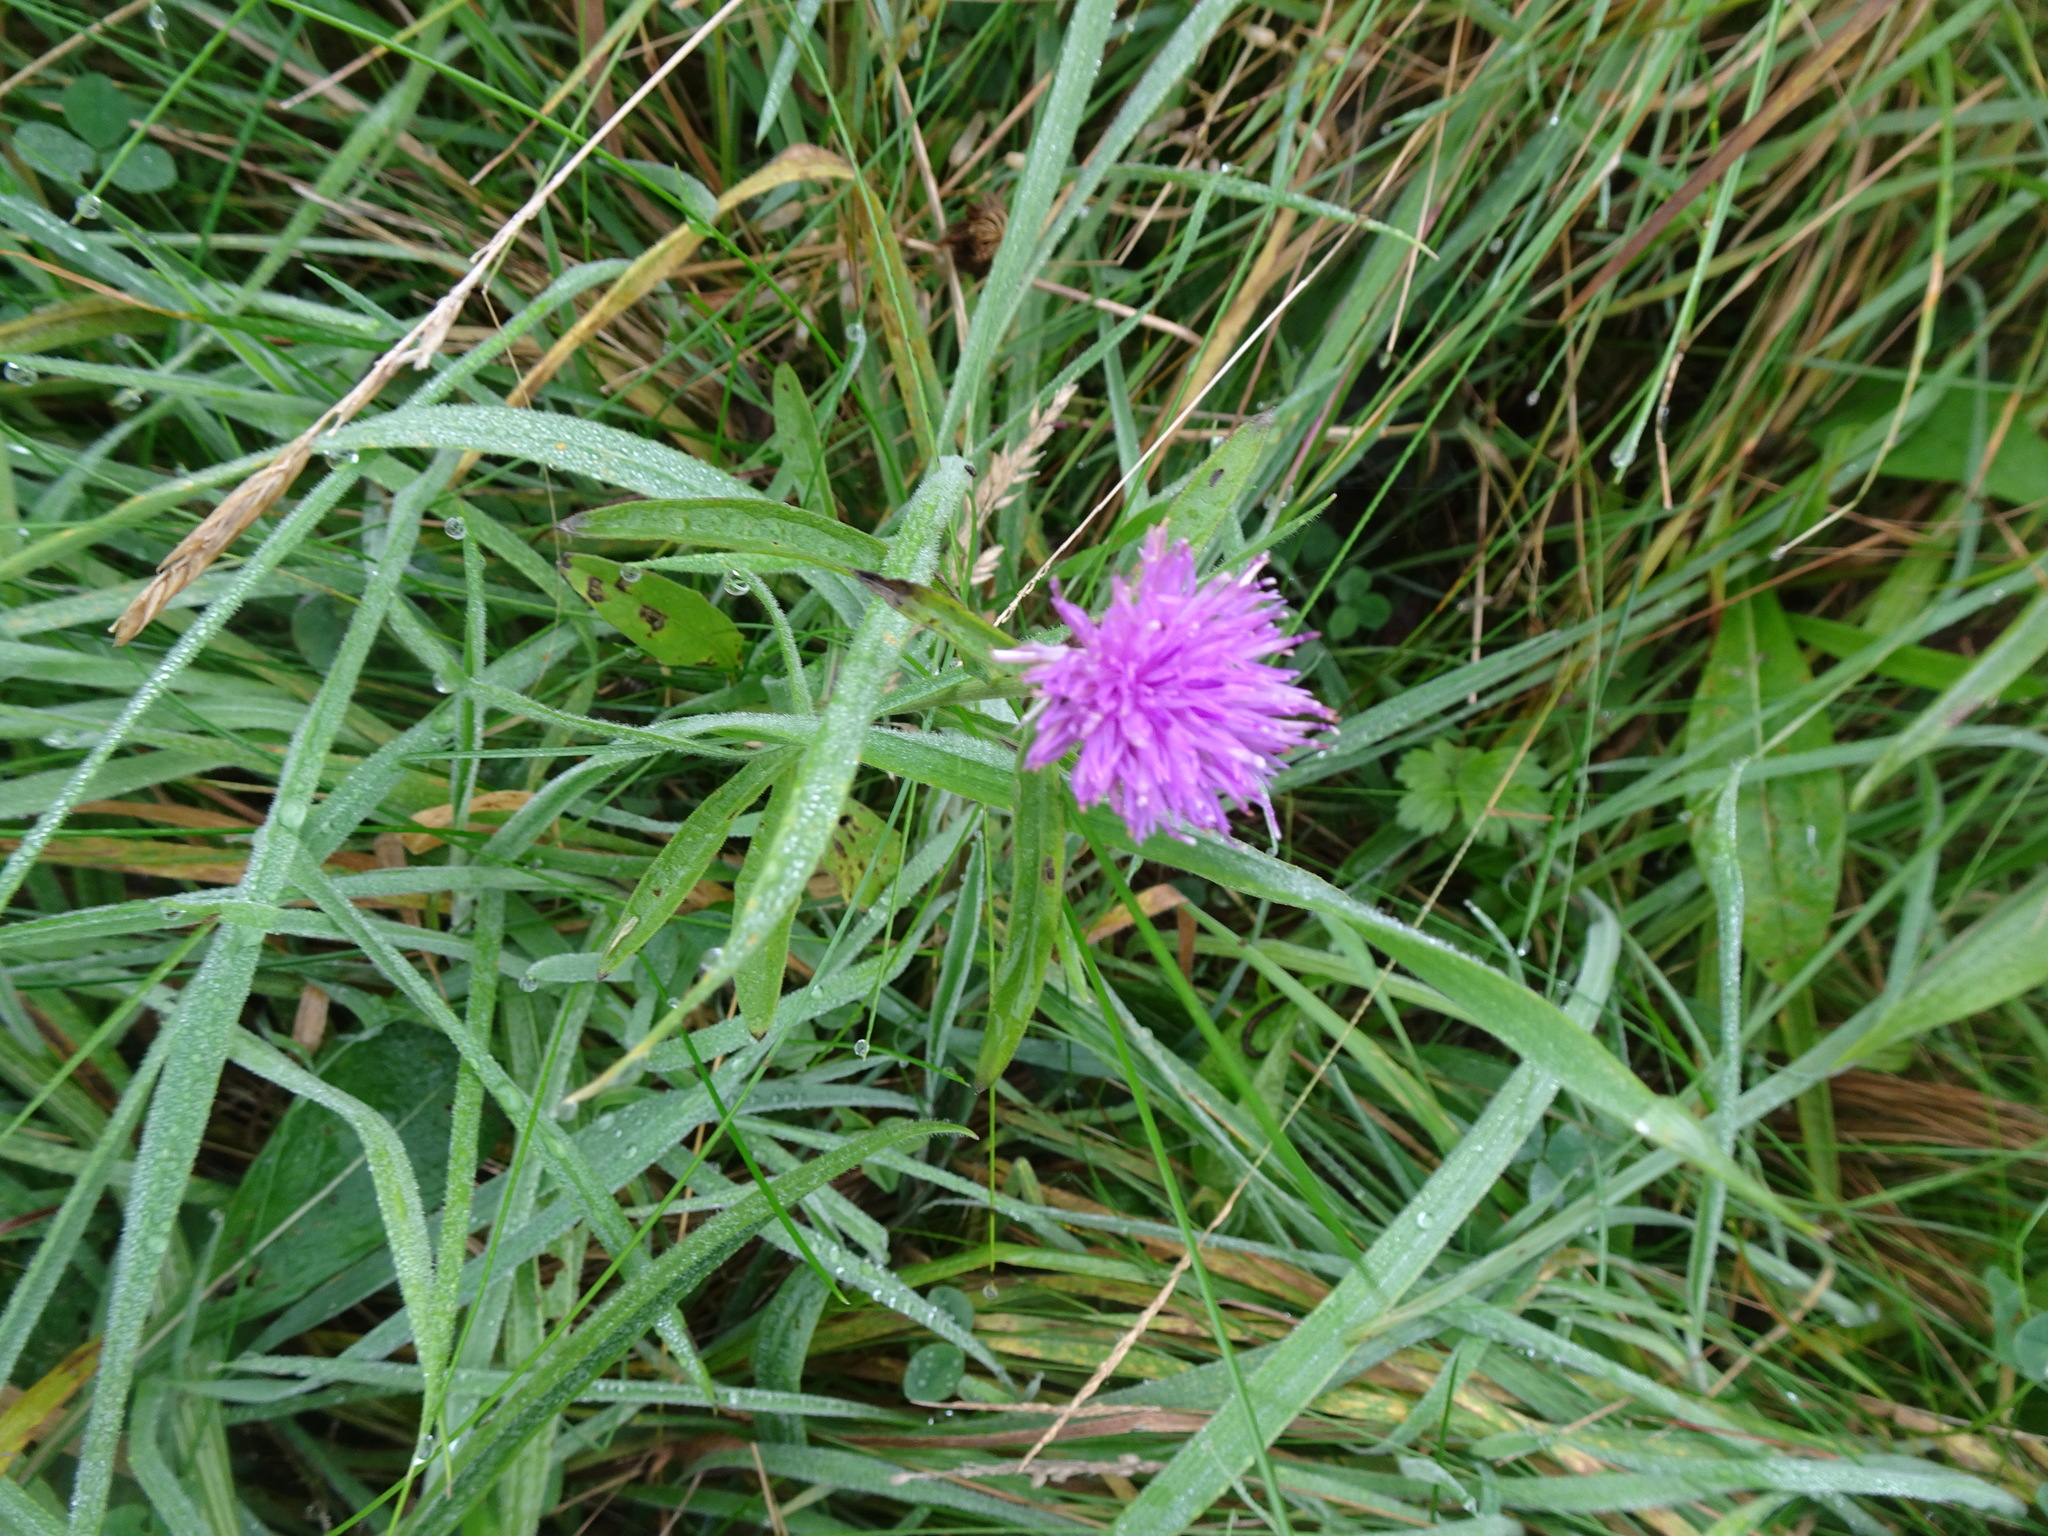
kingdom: Plantae
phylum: Tracheophyta
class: Magnoliopsida
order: Asterales
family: Asteraceae
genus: Centaurea
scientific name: Centaurea nigra
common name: Lesser knapweed
